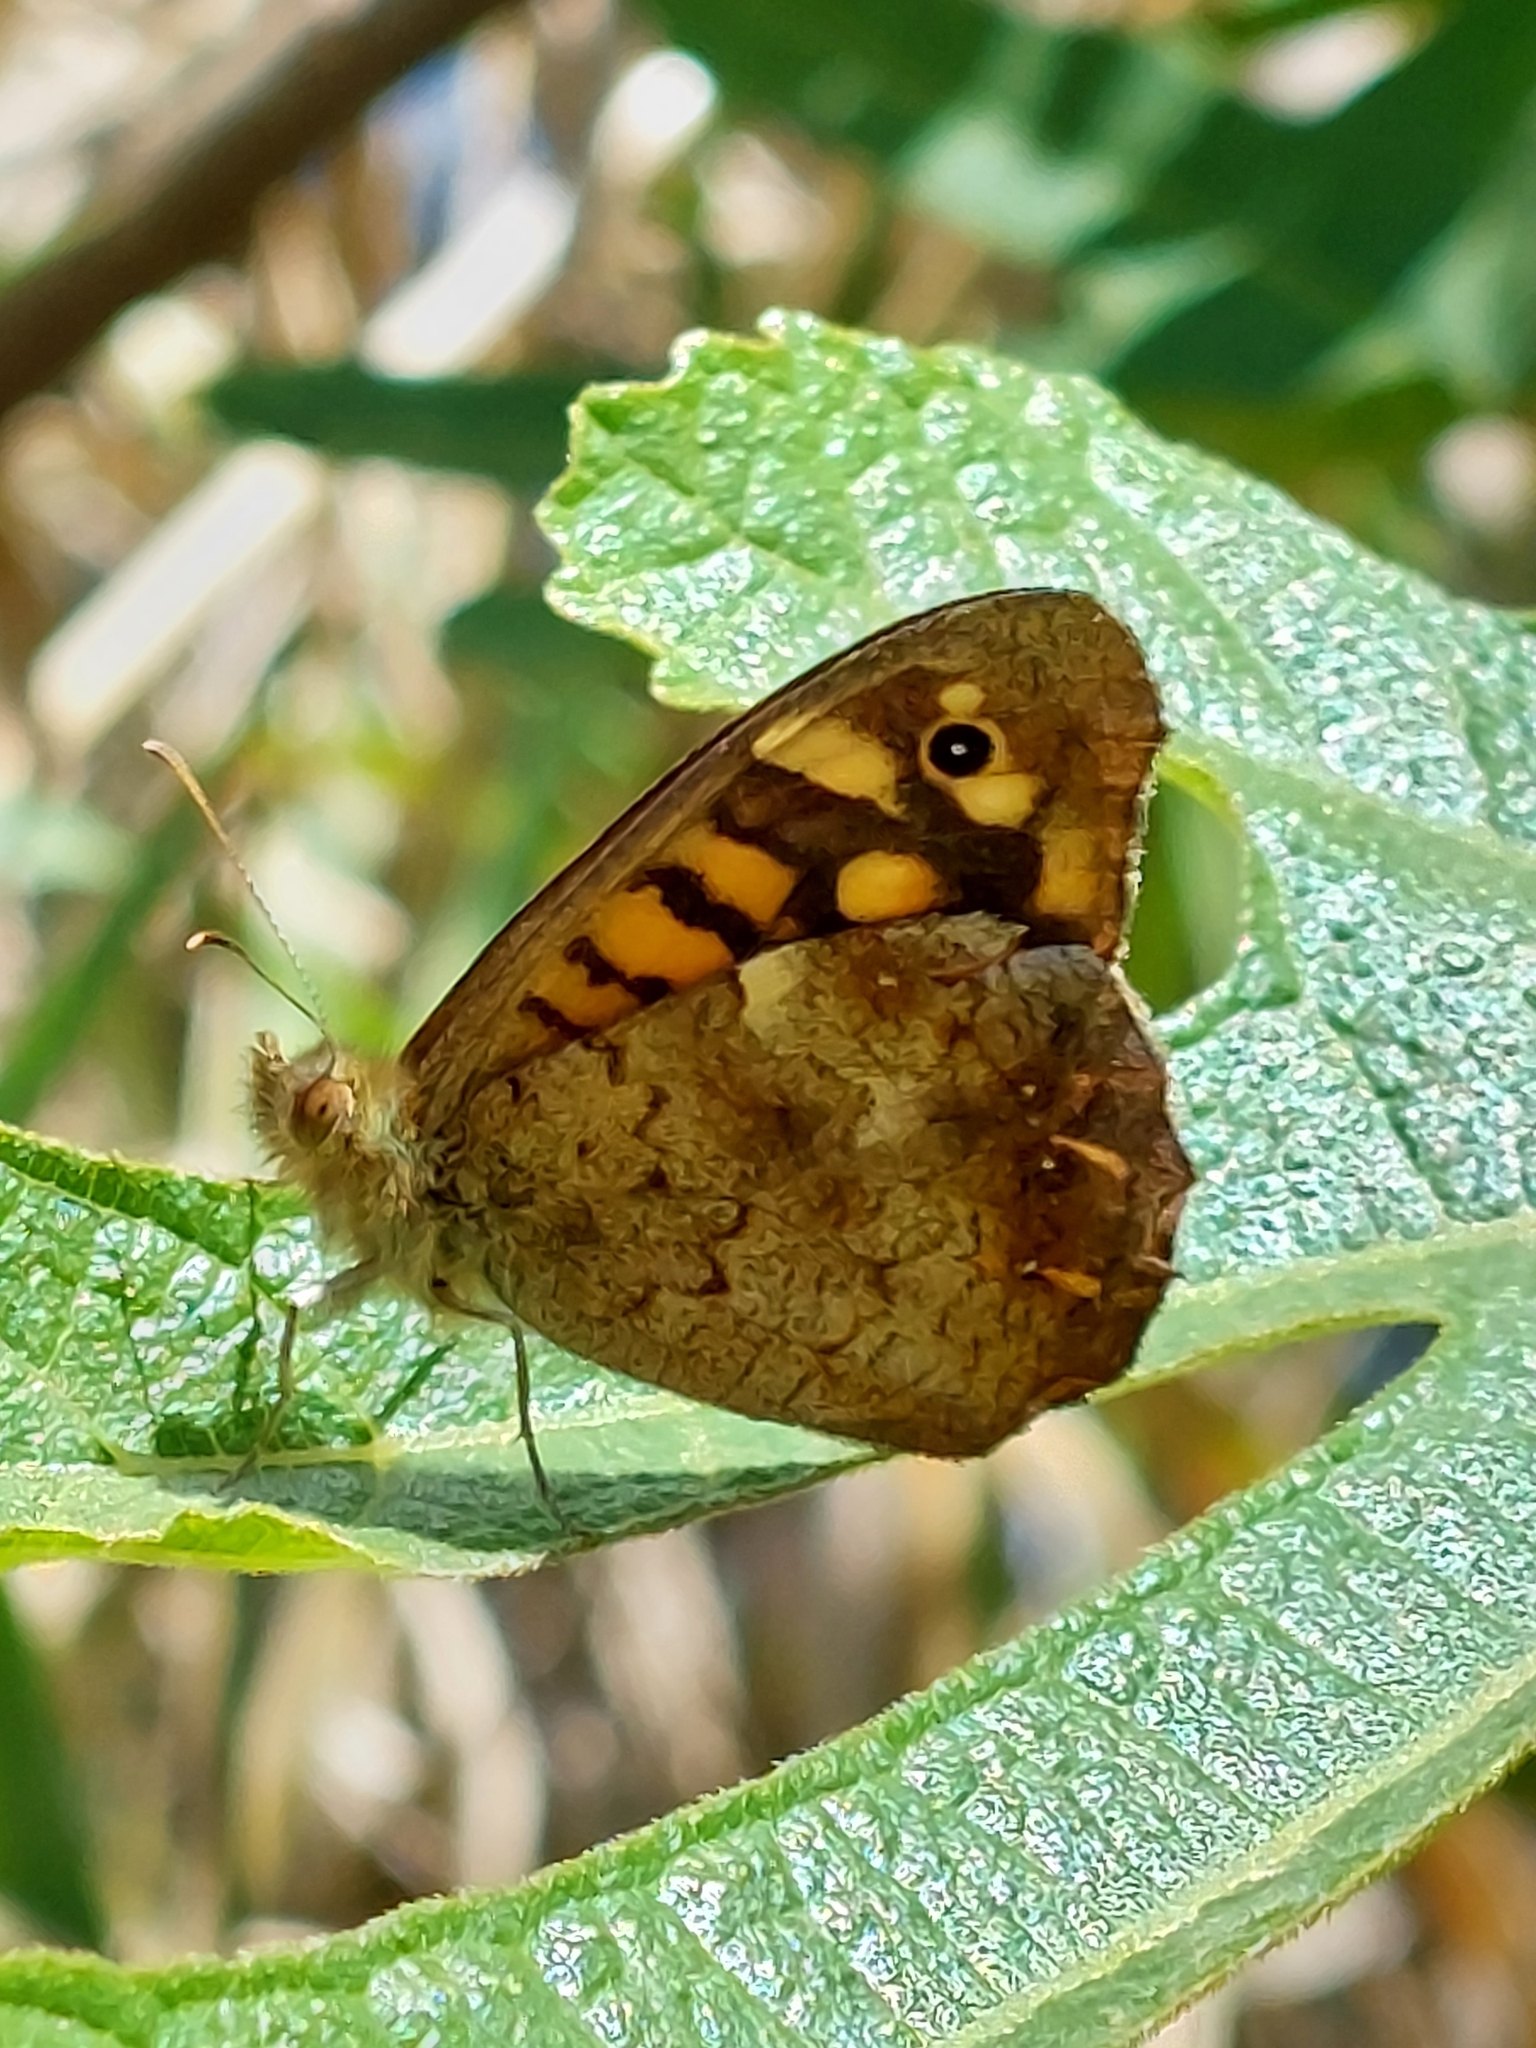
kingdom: Animalia
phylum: Arthropoda
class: Insecta
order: Lepidoptera
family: Nymphalidae
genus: Pararge
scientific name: Pararge aegeria
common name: Speckled wood
